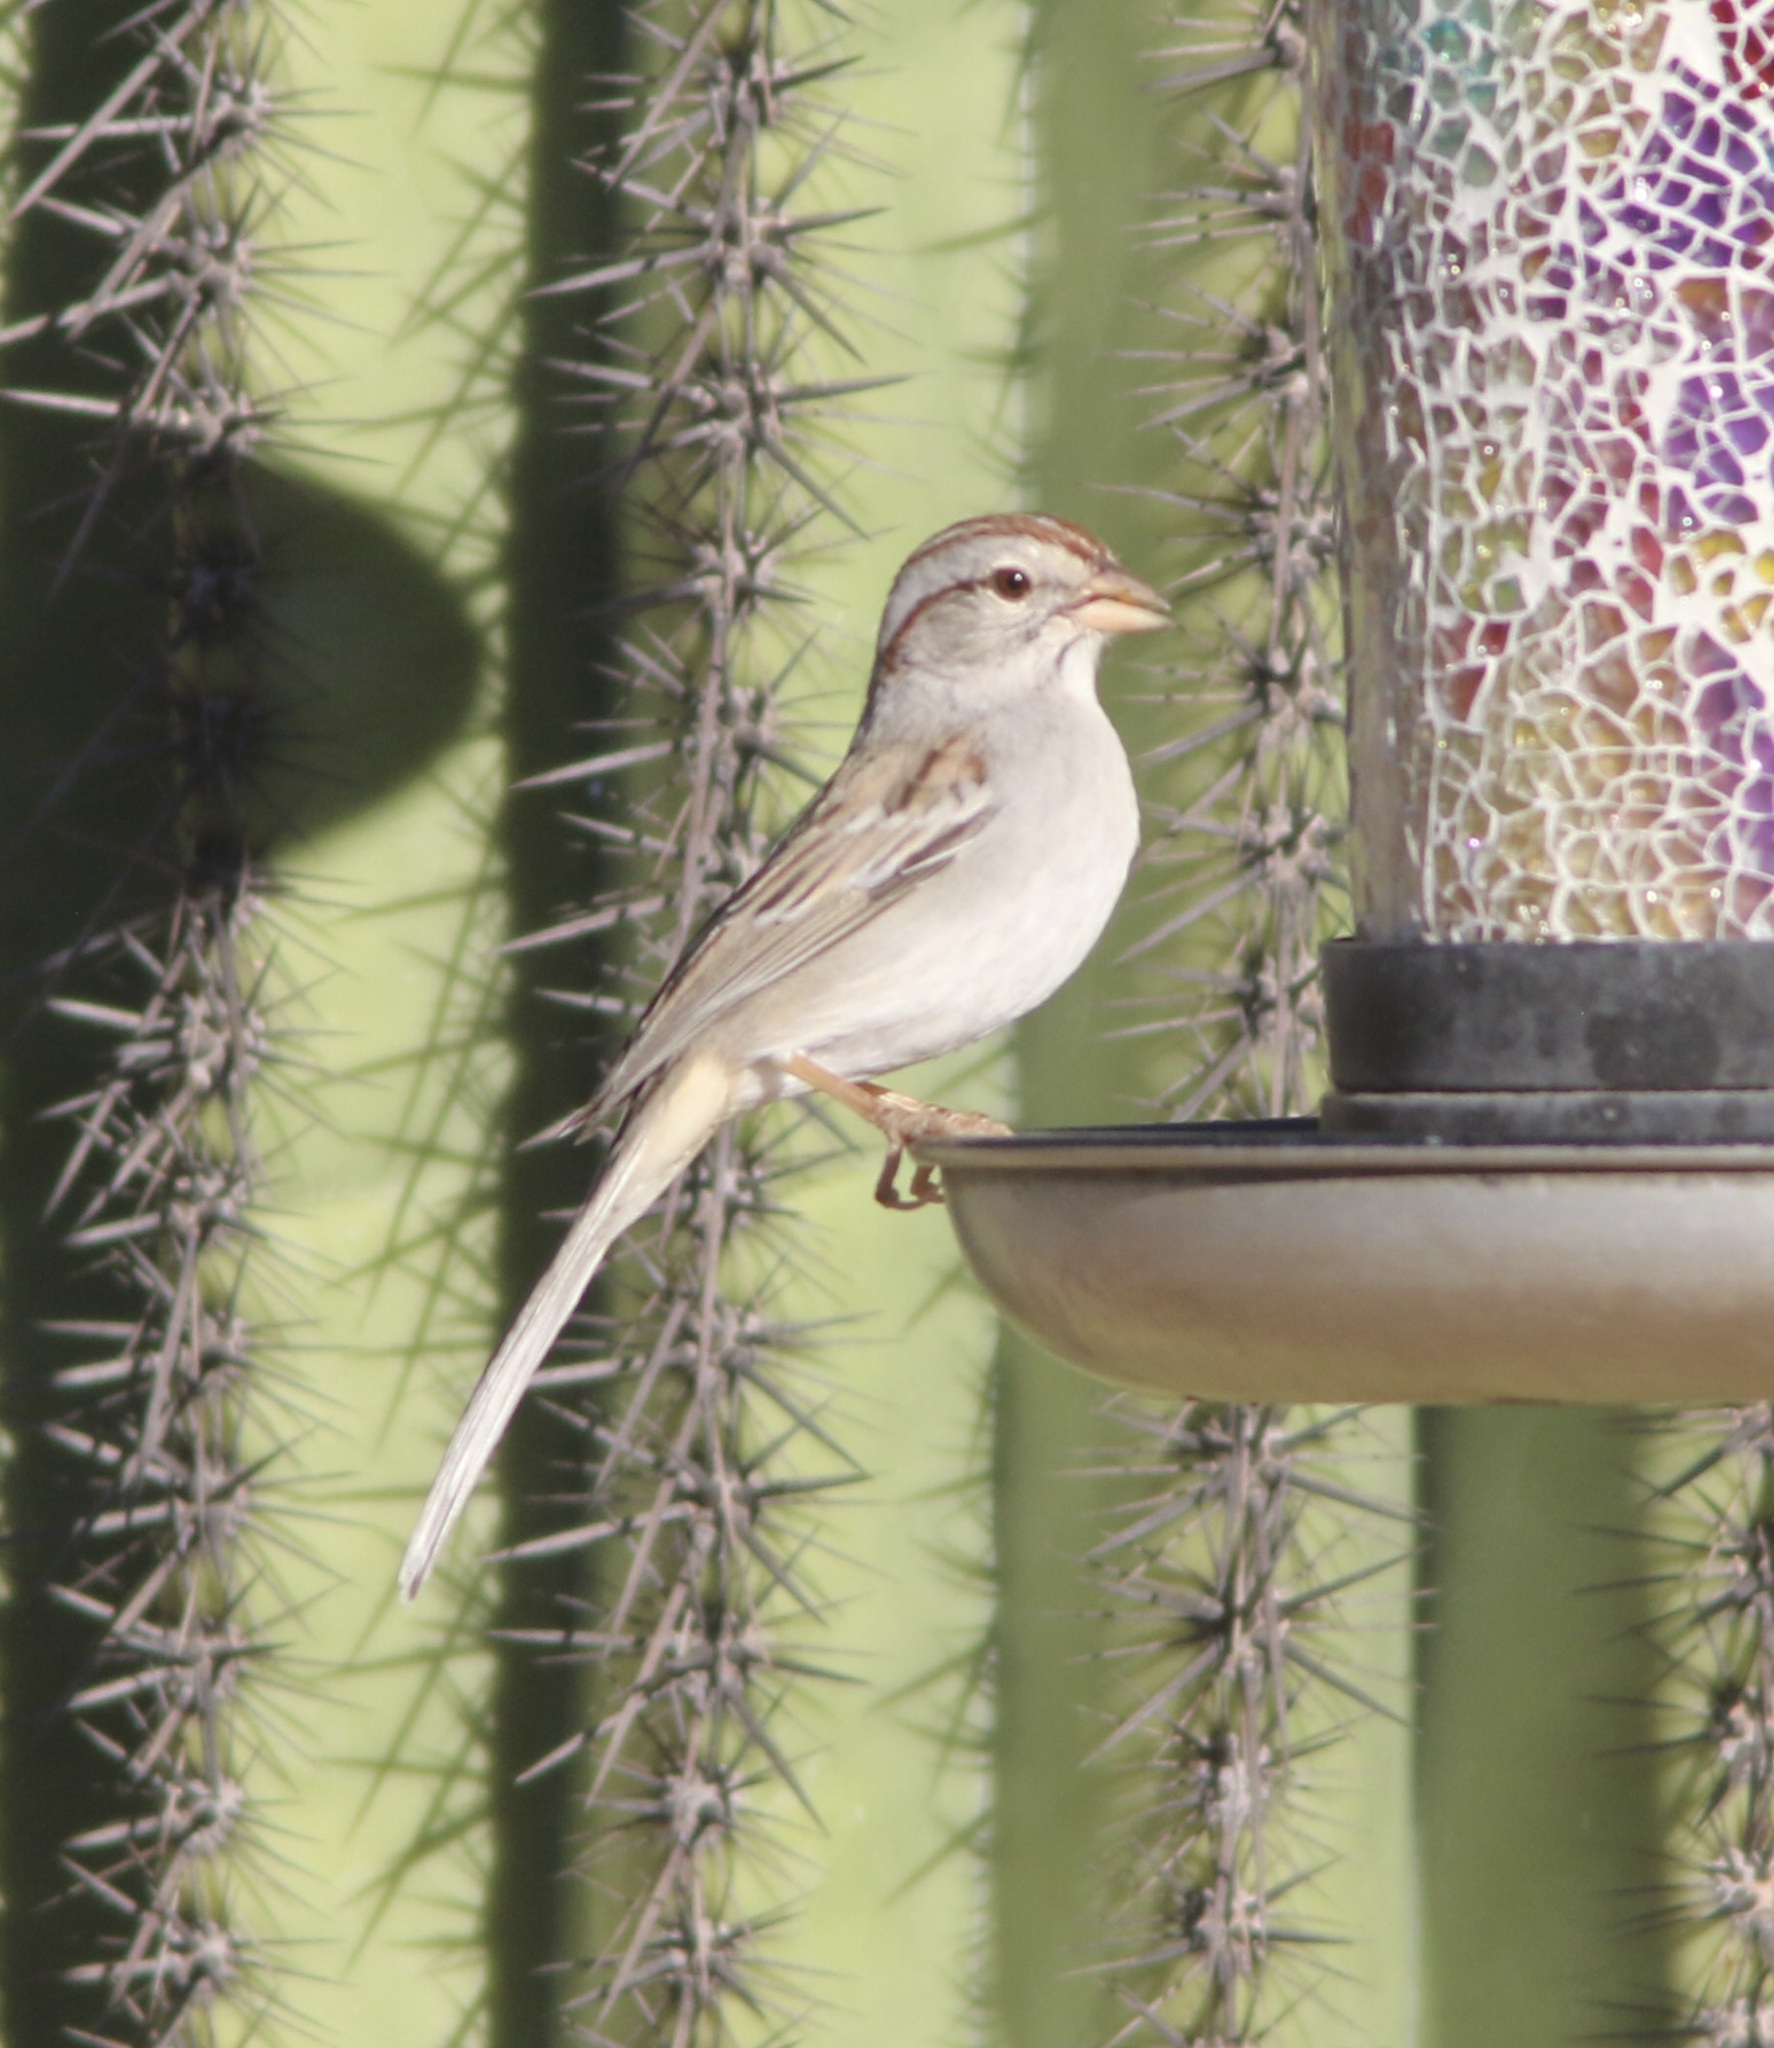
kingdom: Animalia
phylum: Chordata
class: Aves
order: Passeriformes
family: Passerellidae
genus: Peucaea
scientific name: Peucaea carpalis
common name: Rufous-winged sparrow
